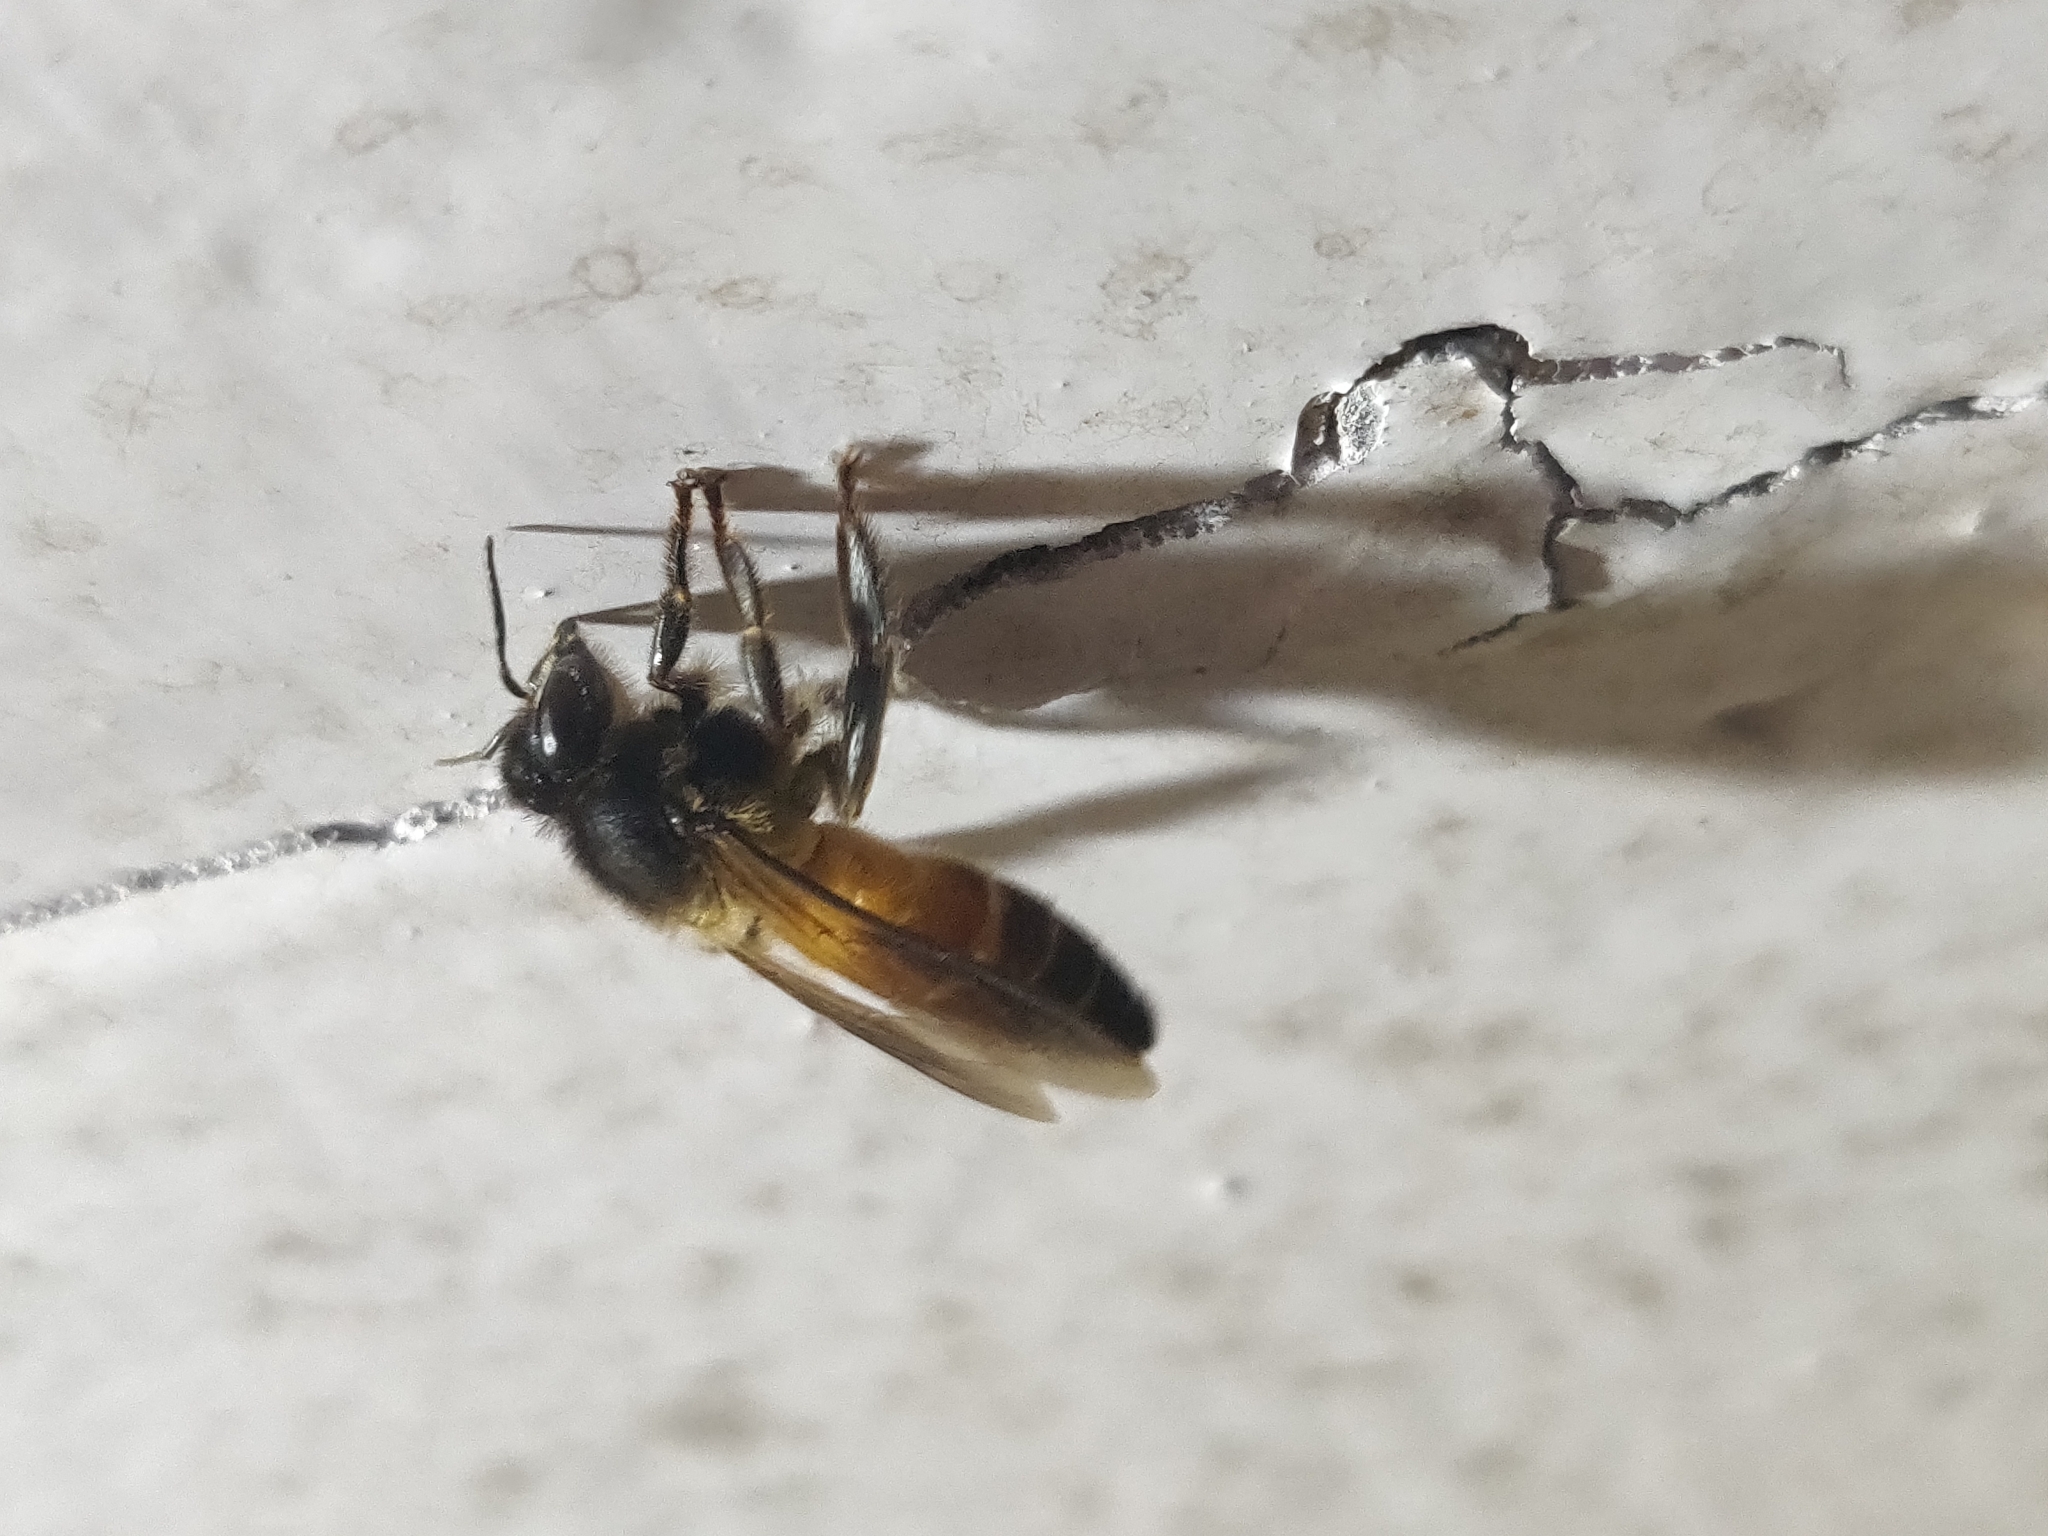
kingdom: Animalia
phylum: Arthropoda
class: Insecta
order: Hymenoptera
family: Apidae
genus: Apis
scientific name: Apis dorsata
